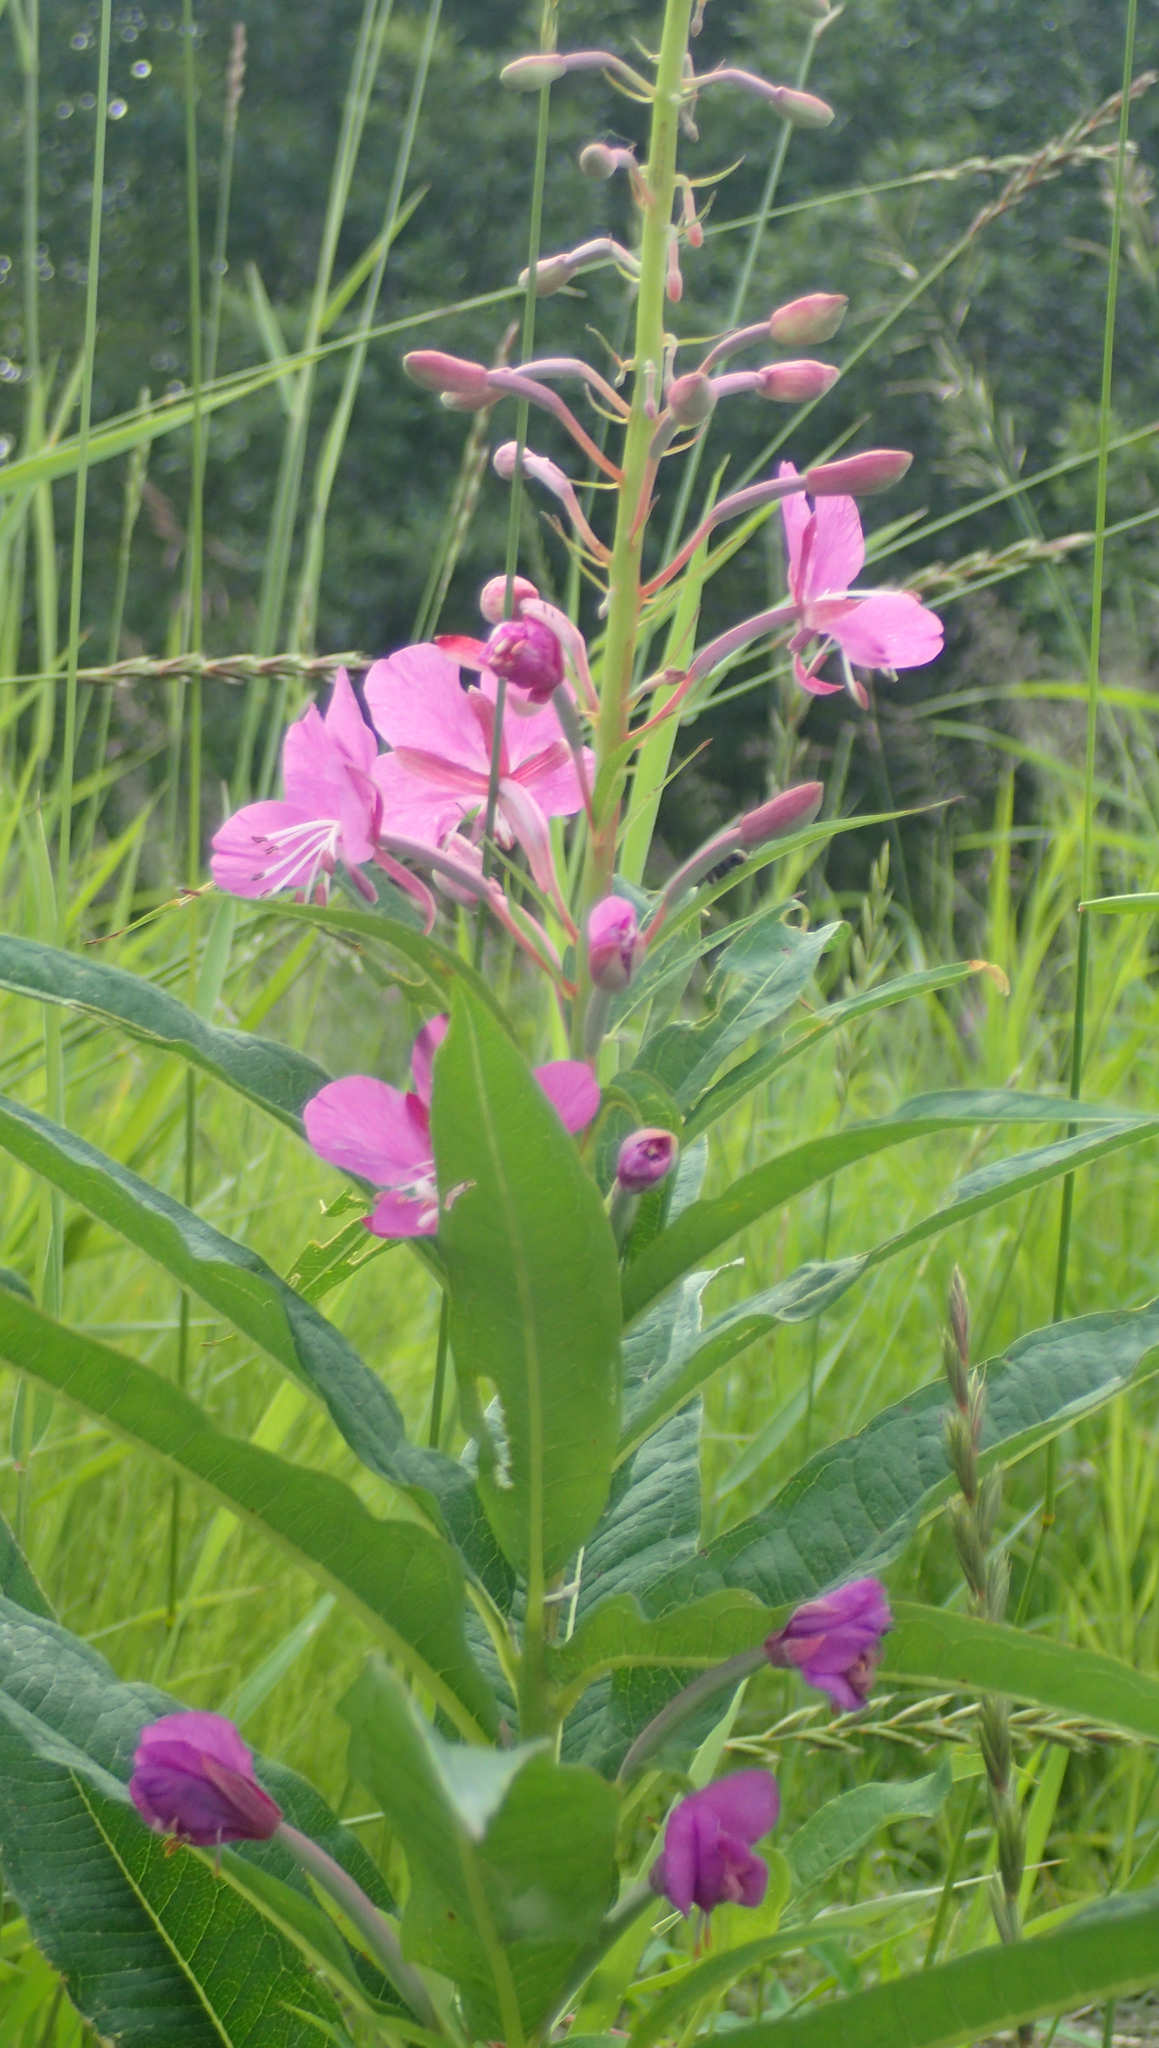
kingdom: Plantae
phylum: Tracheophyta
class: Magnoliopsida
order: Myrtales
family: Onagraceae
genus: Chamaenerion
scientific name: Chamaenerion angustifolium
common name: Fireweed
